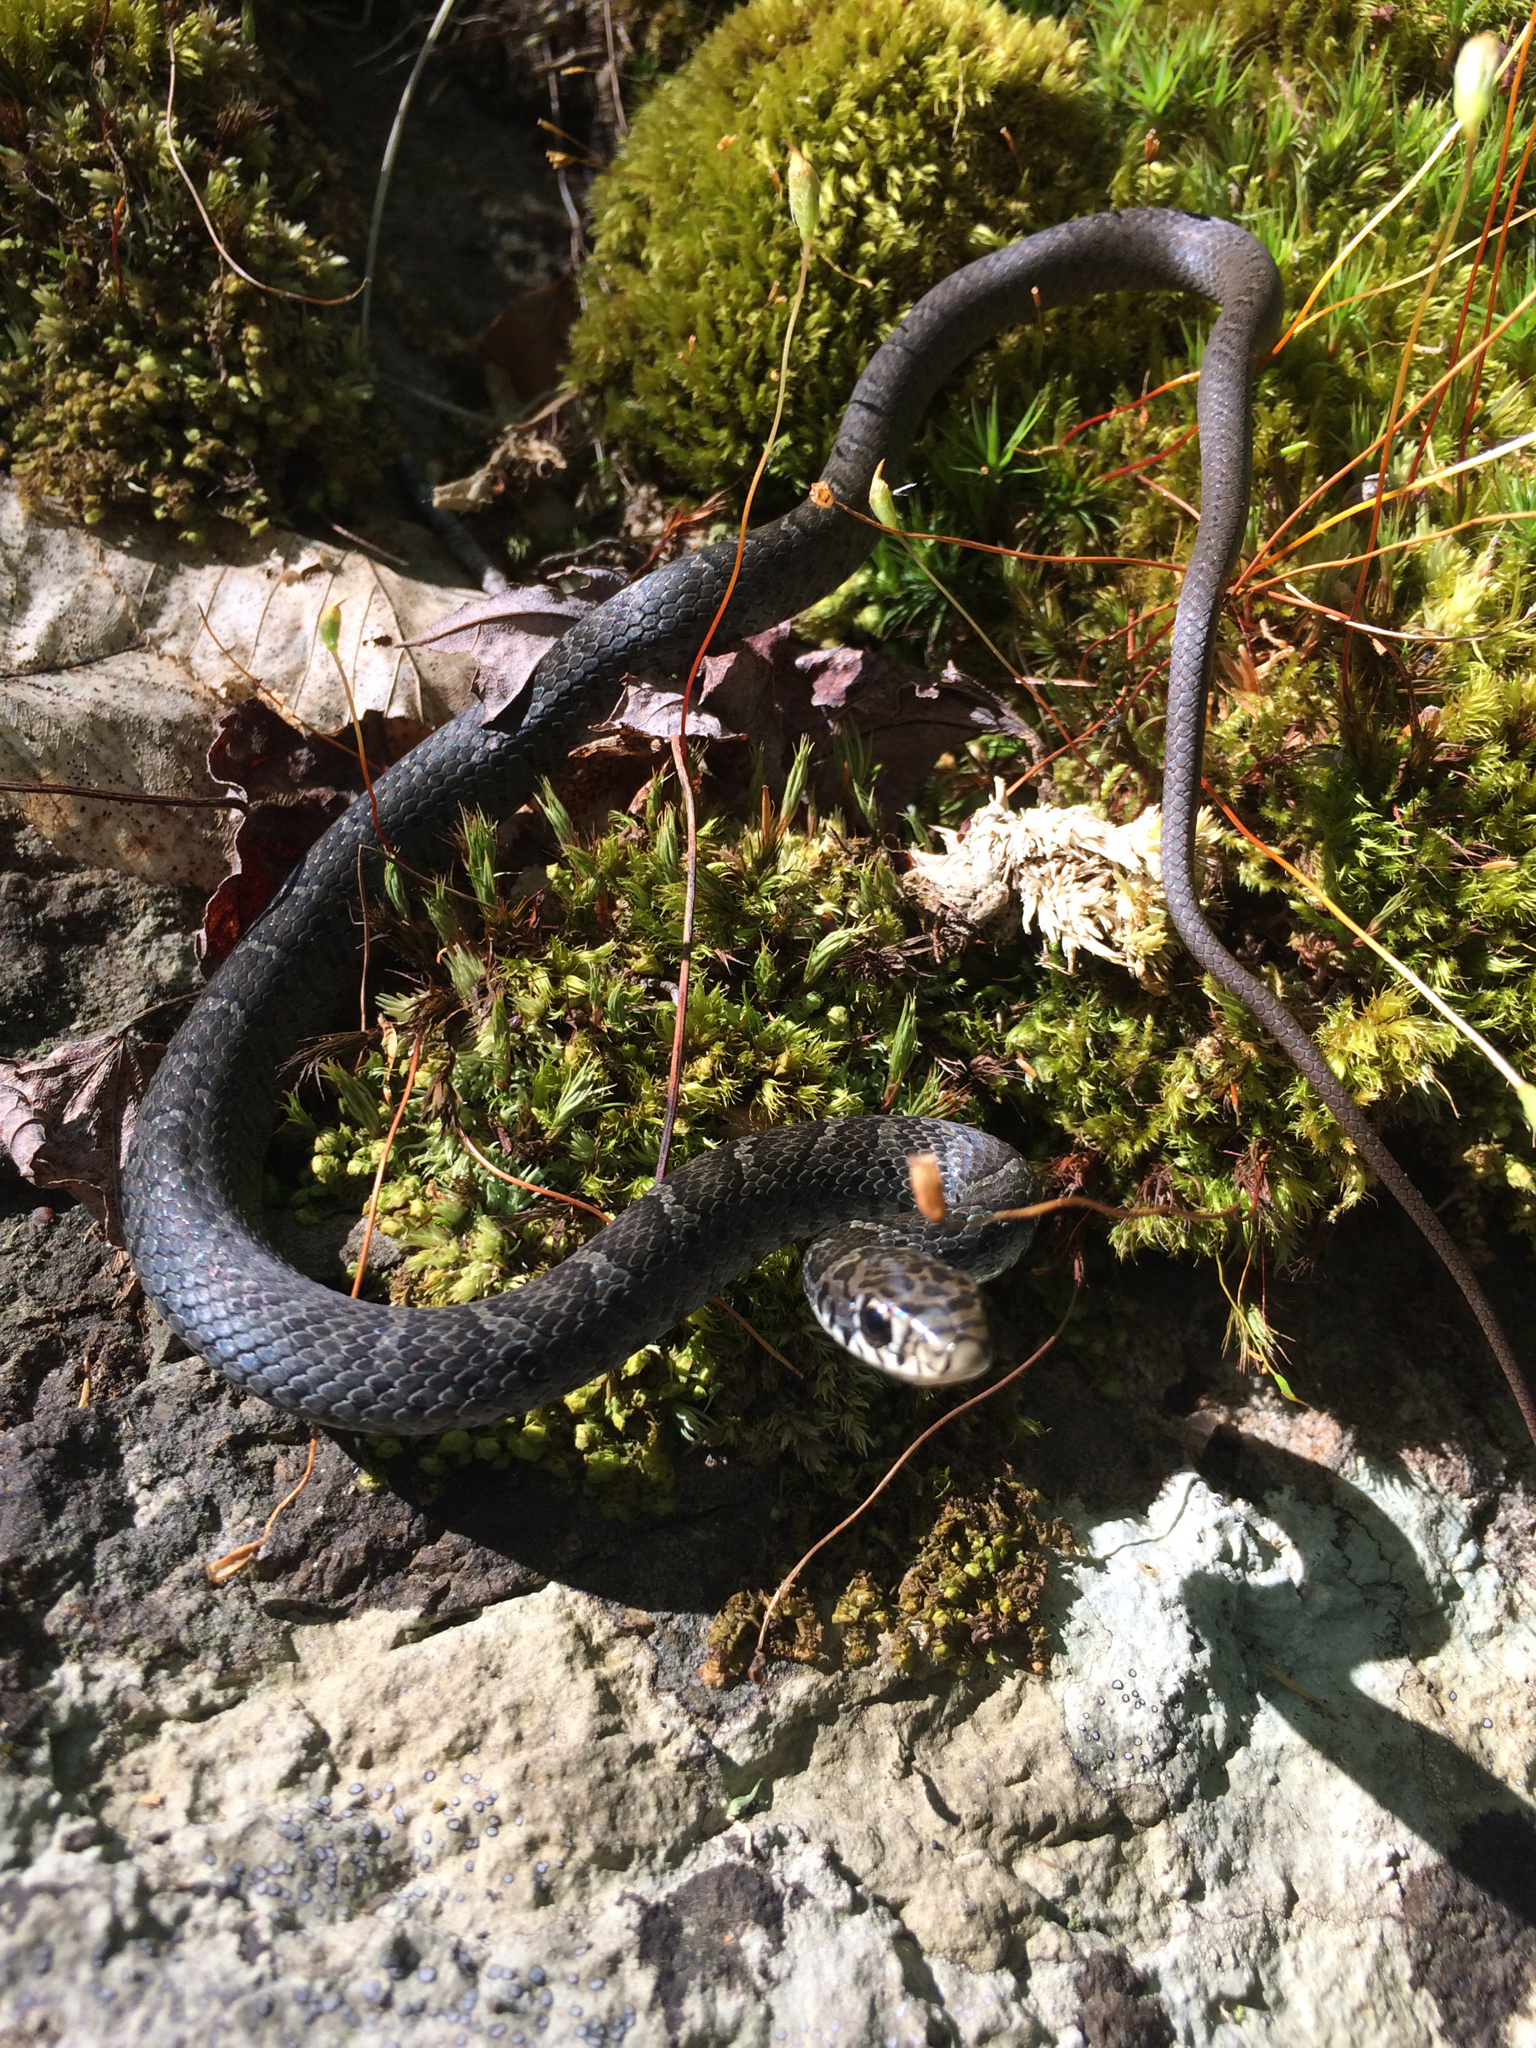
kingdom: Animalia
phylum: Chordata
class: Squamata
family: Colubridae
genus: Coluber
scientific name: Coluber constrictor
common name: Eastern racer
